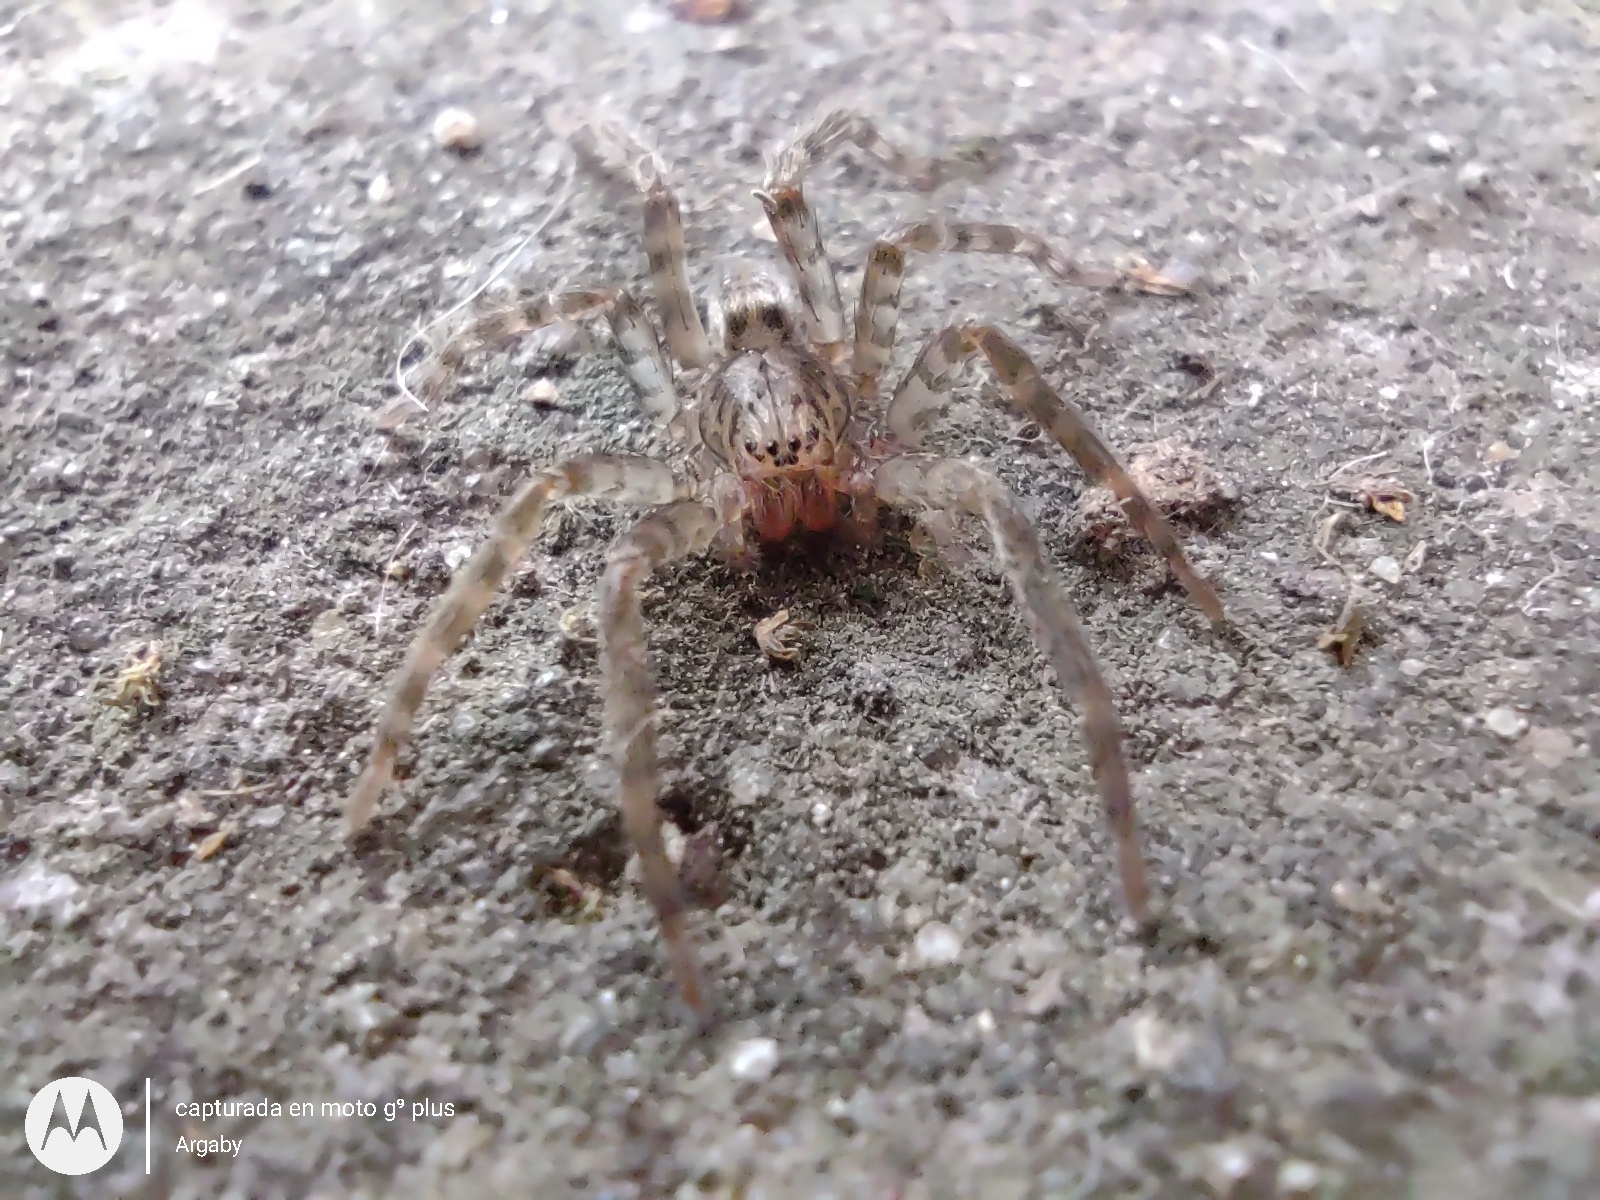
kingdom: Animalia
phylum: Arthropoda
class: Arachnida
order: Araneae
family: Ctenidae
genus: Asthenoctenus
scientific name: Asthenoctenus borellii
